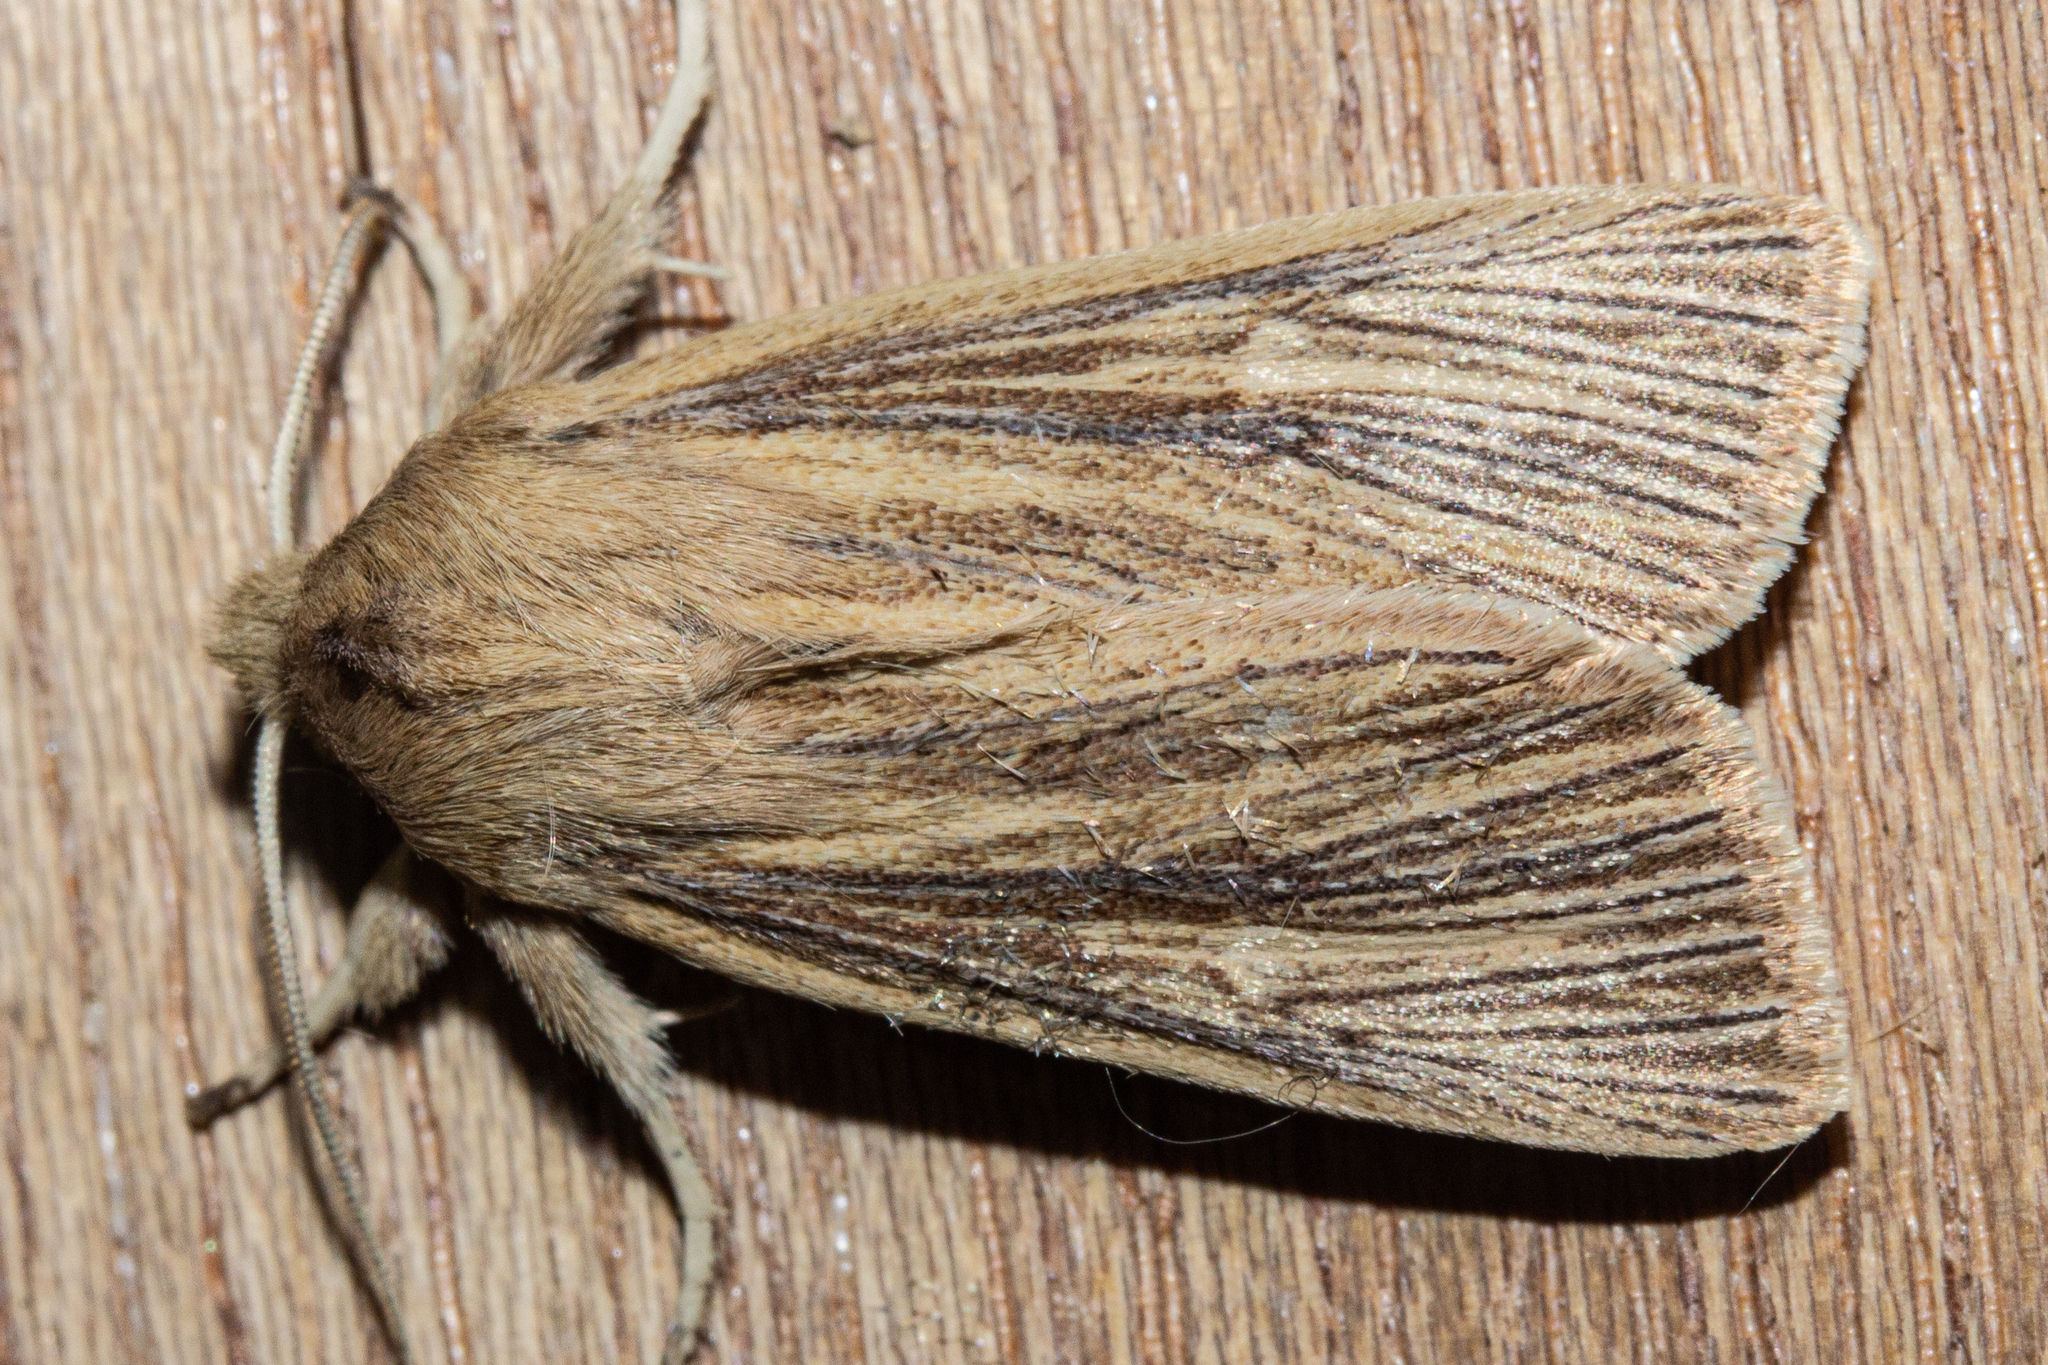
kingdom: Animalia
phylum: Arthropoda
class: Insecta
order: Lepidoptera
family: Noctuidae
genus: Ichneutica
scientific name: Ichneutica arotis
